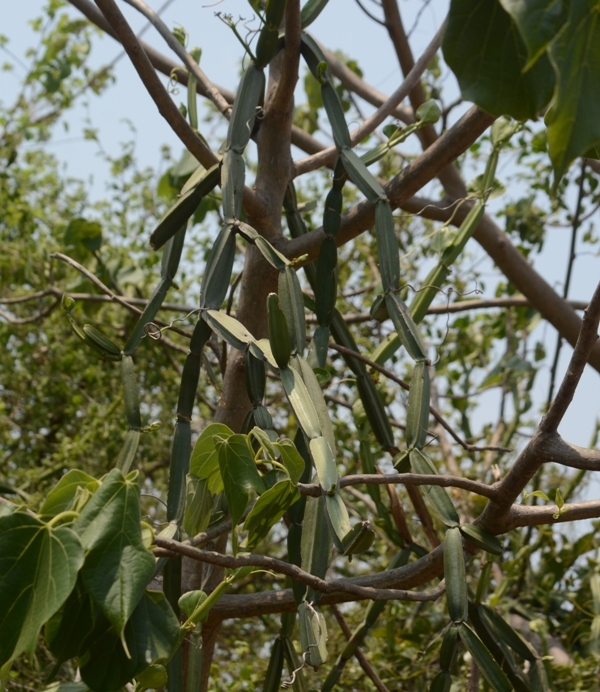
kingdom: Plantae
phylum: Tracheophyta
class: Magnoliopsida
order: Vitales
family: Vitaceae
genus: Cissus
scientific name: Cissus quadrangularis
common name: Veldt-grape
